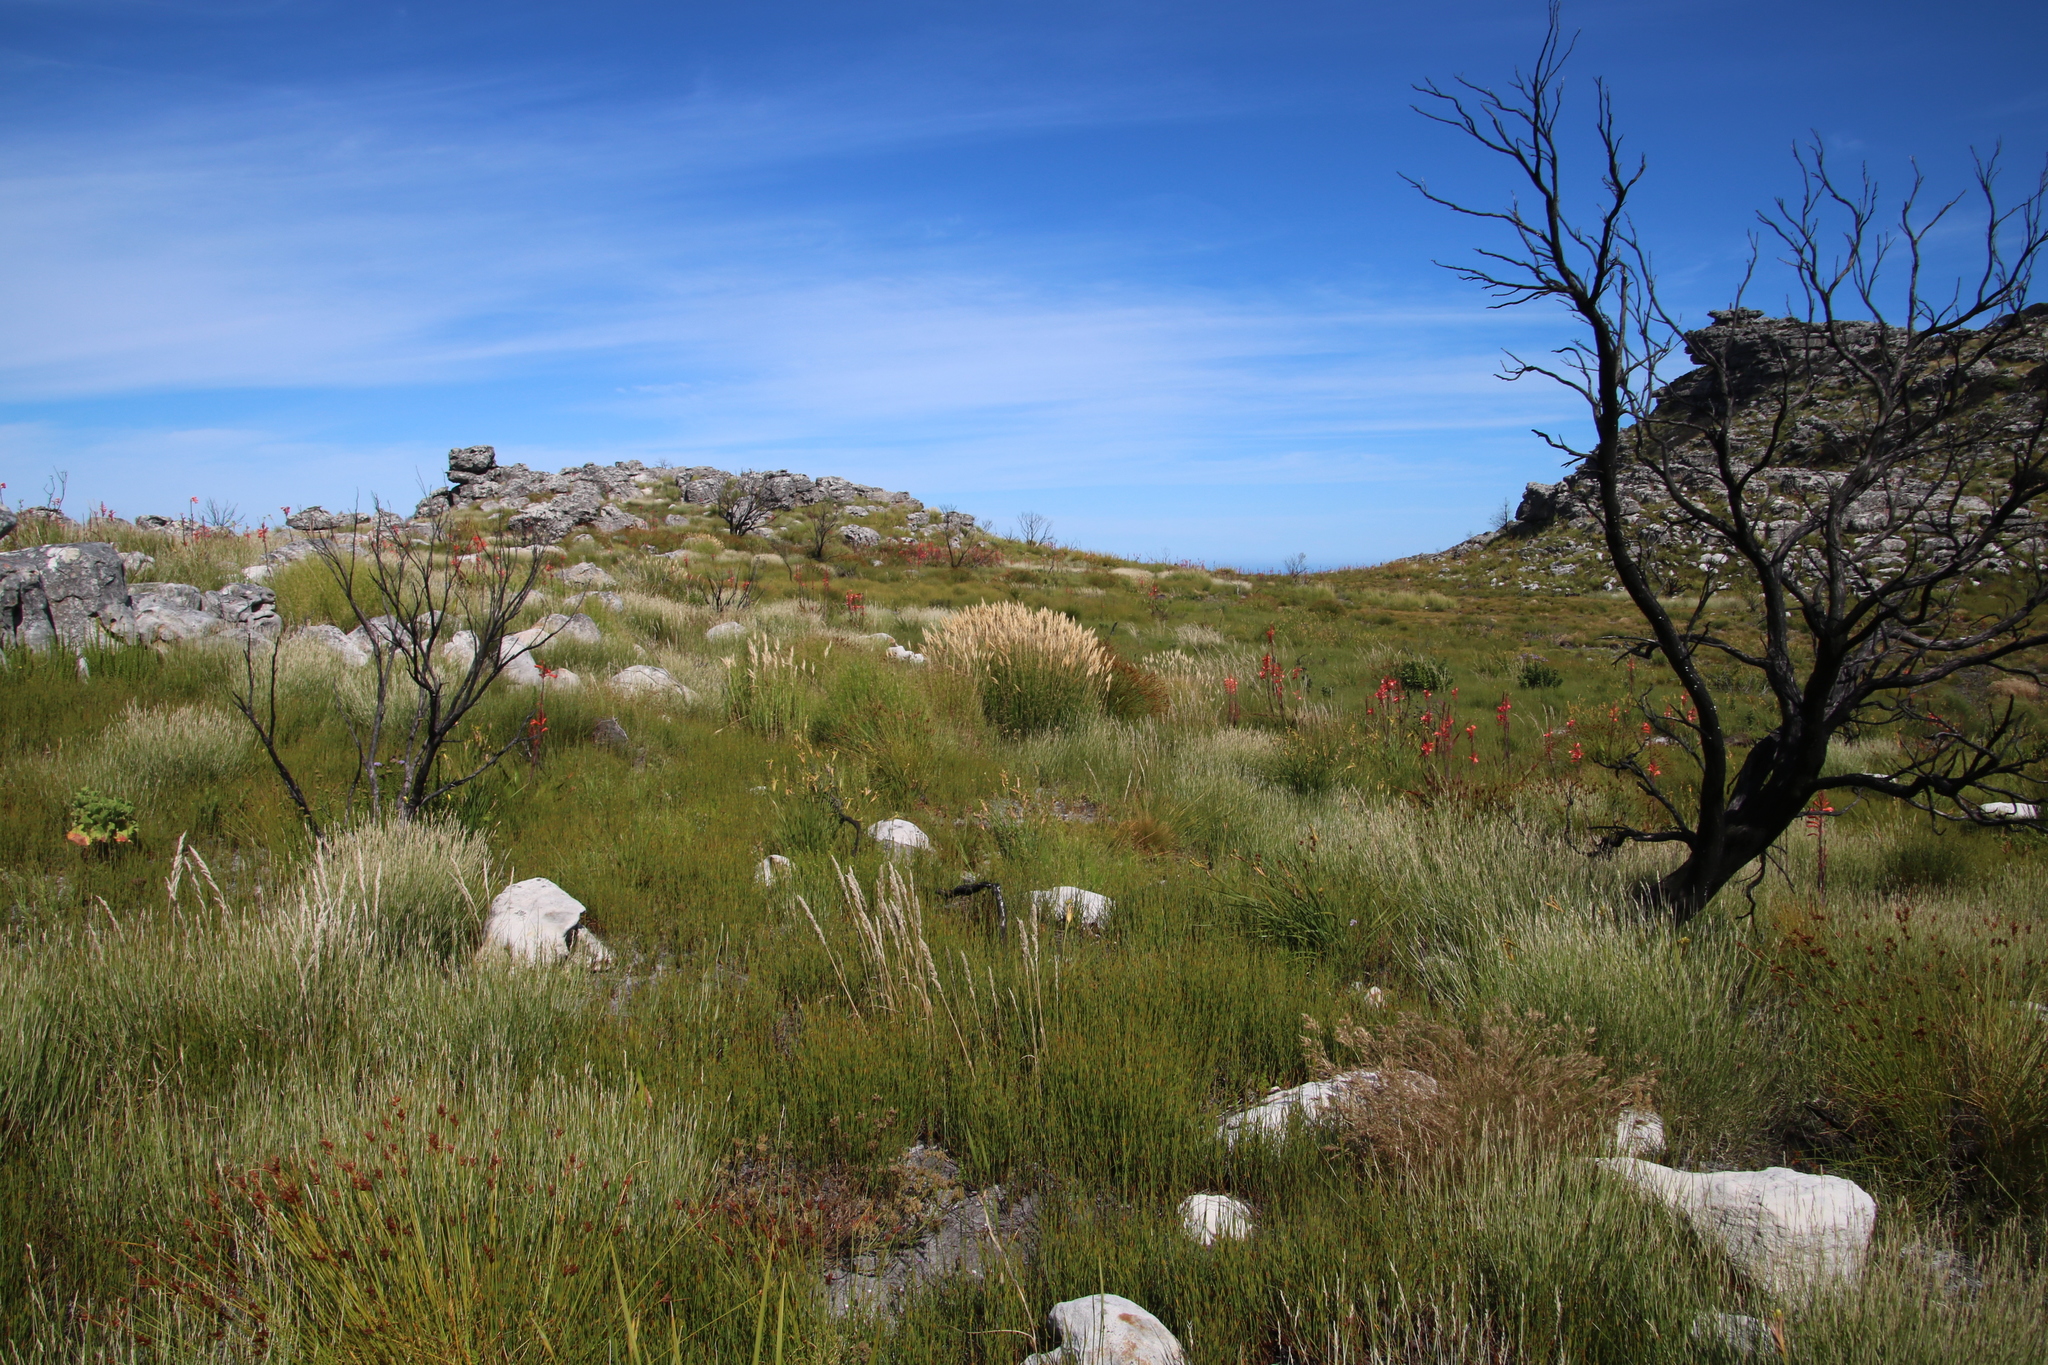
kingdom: Plantae
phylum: Tracheophyta
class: Liliopsida
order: Poales
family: Poaceae
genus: Pseudopentameris
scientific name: Pseudopentameris macrantha
